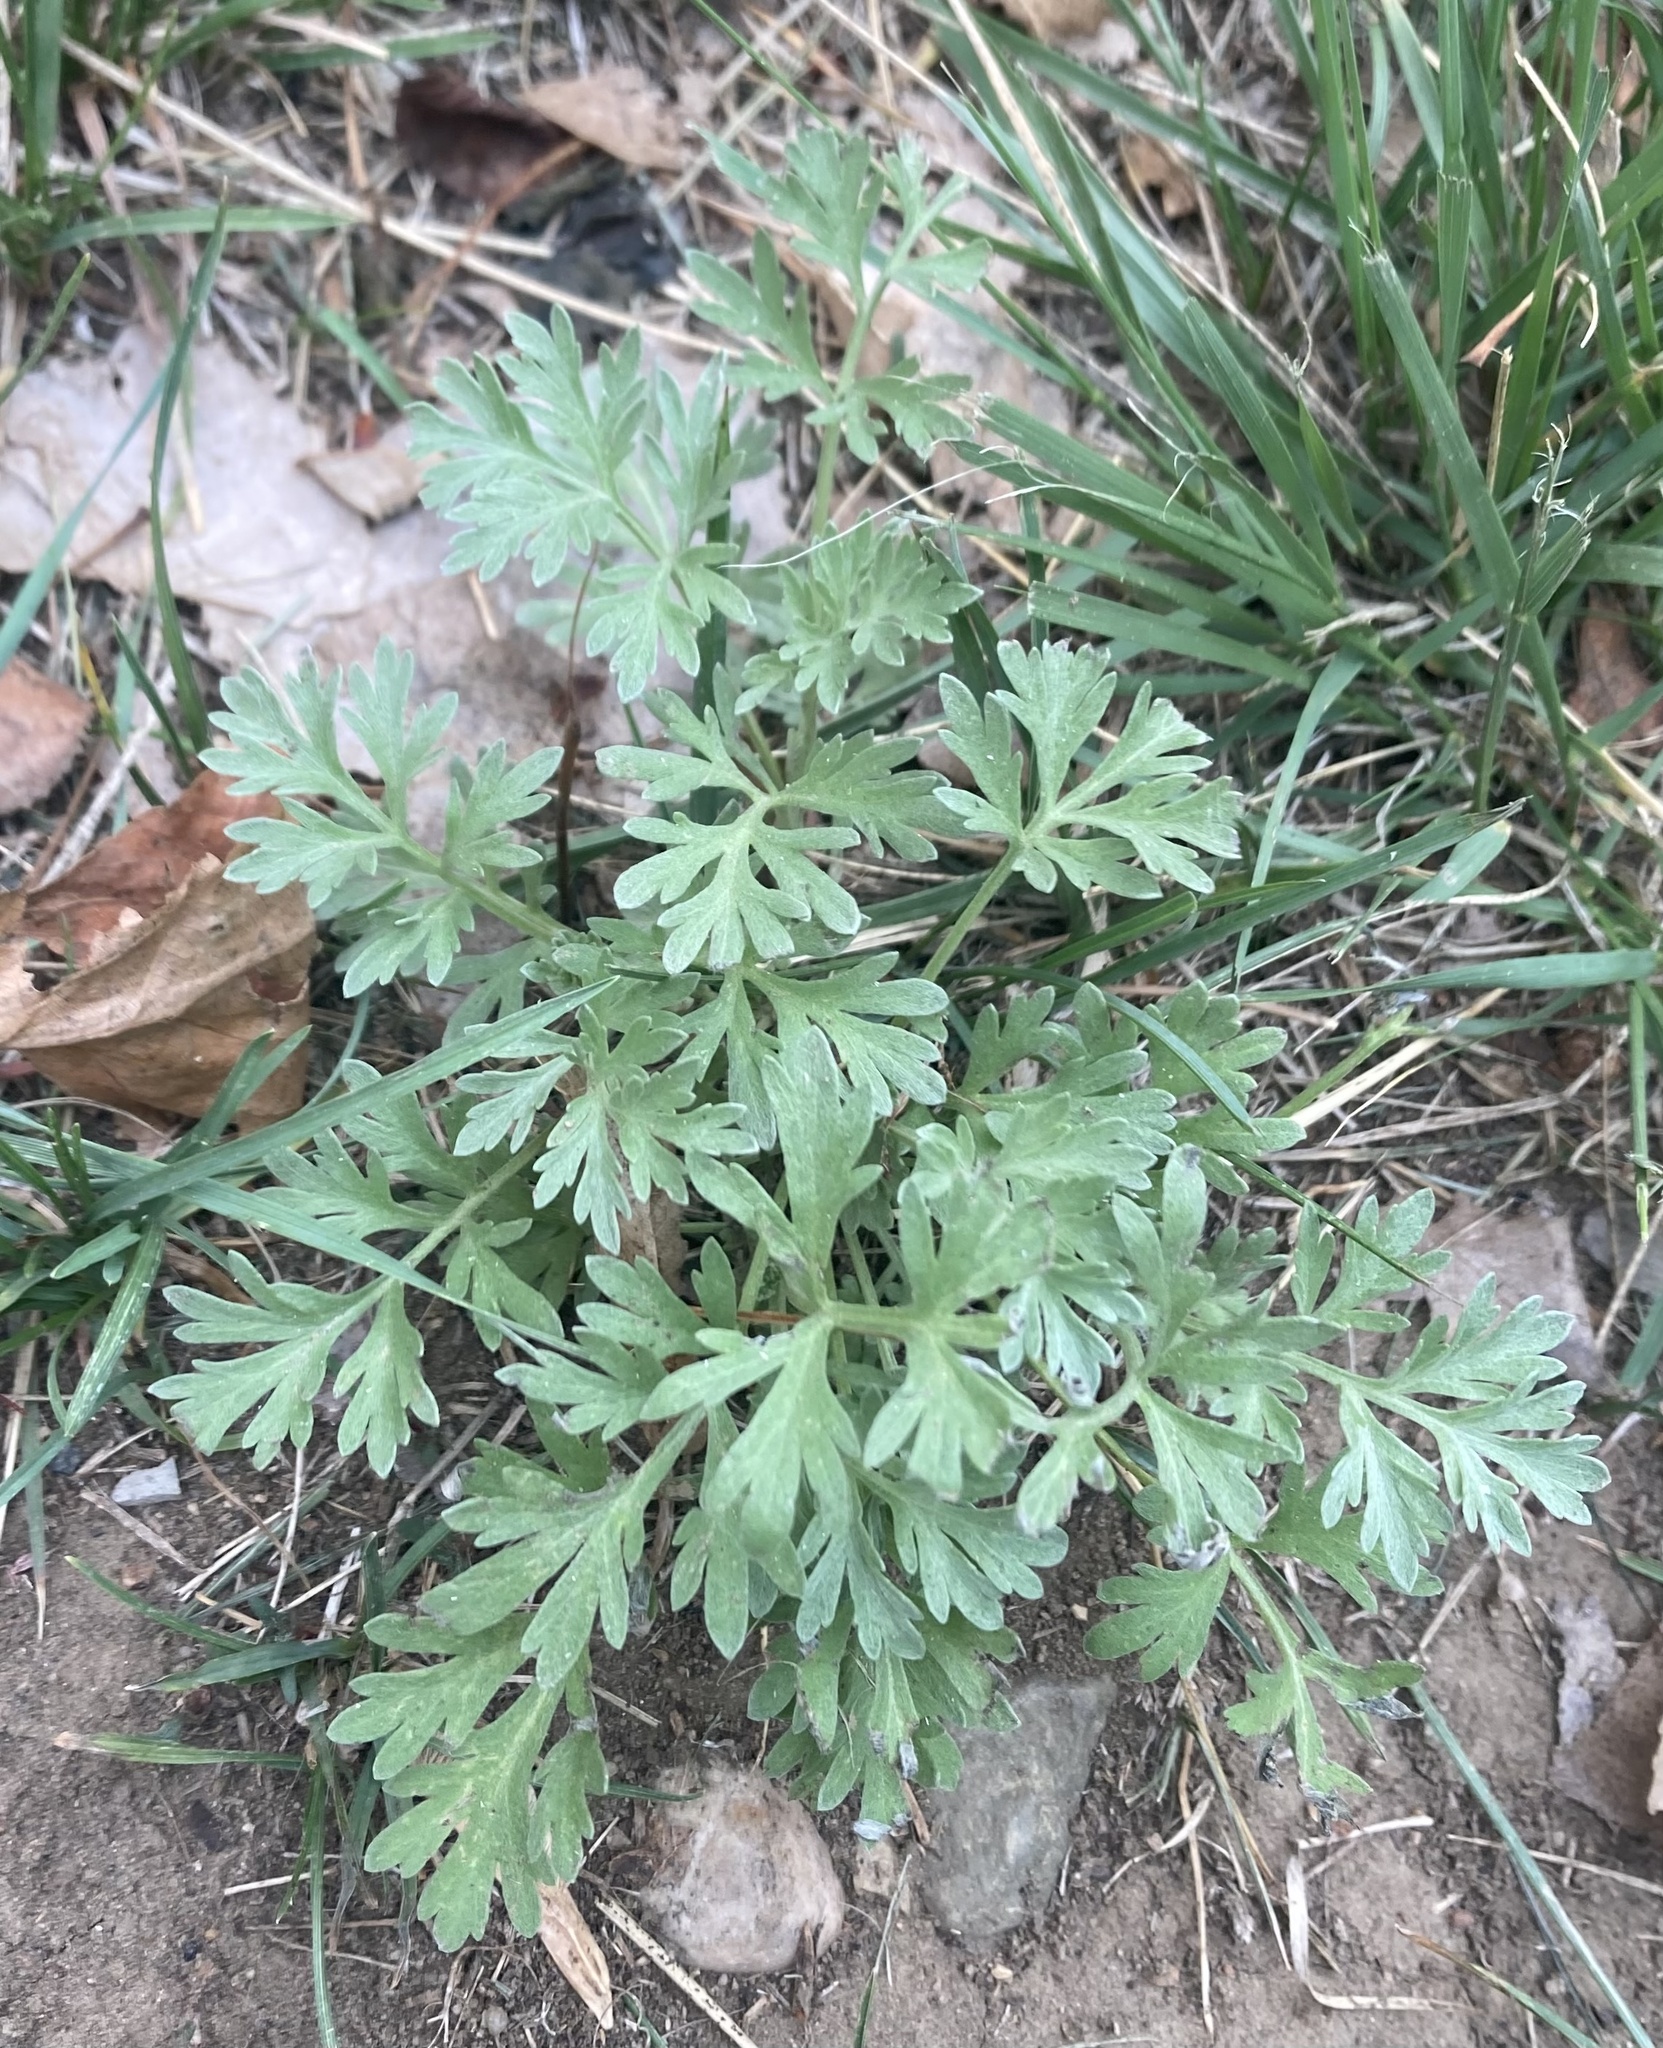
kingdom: Plantae
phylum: Tracheophyta
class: Magnoliopsida
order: Asterales
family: Asteraceae
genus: Artemisia
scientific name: Artemisia absinthium
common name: Wormwood
